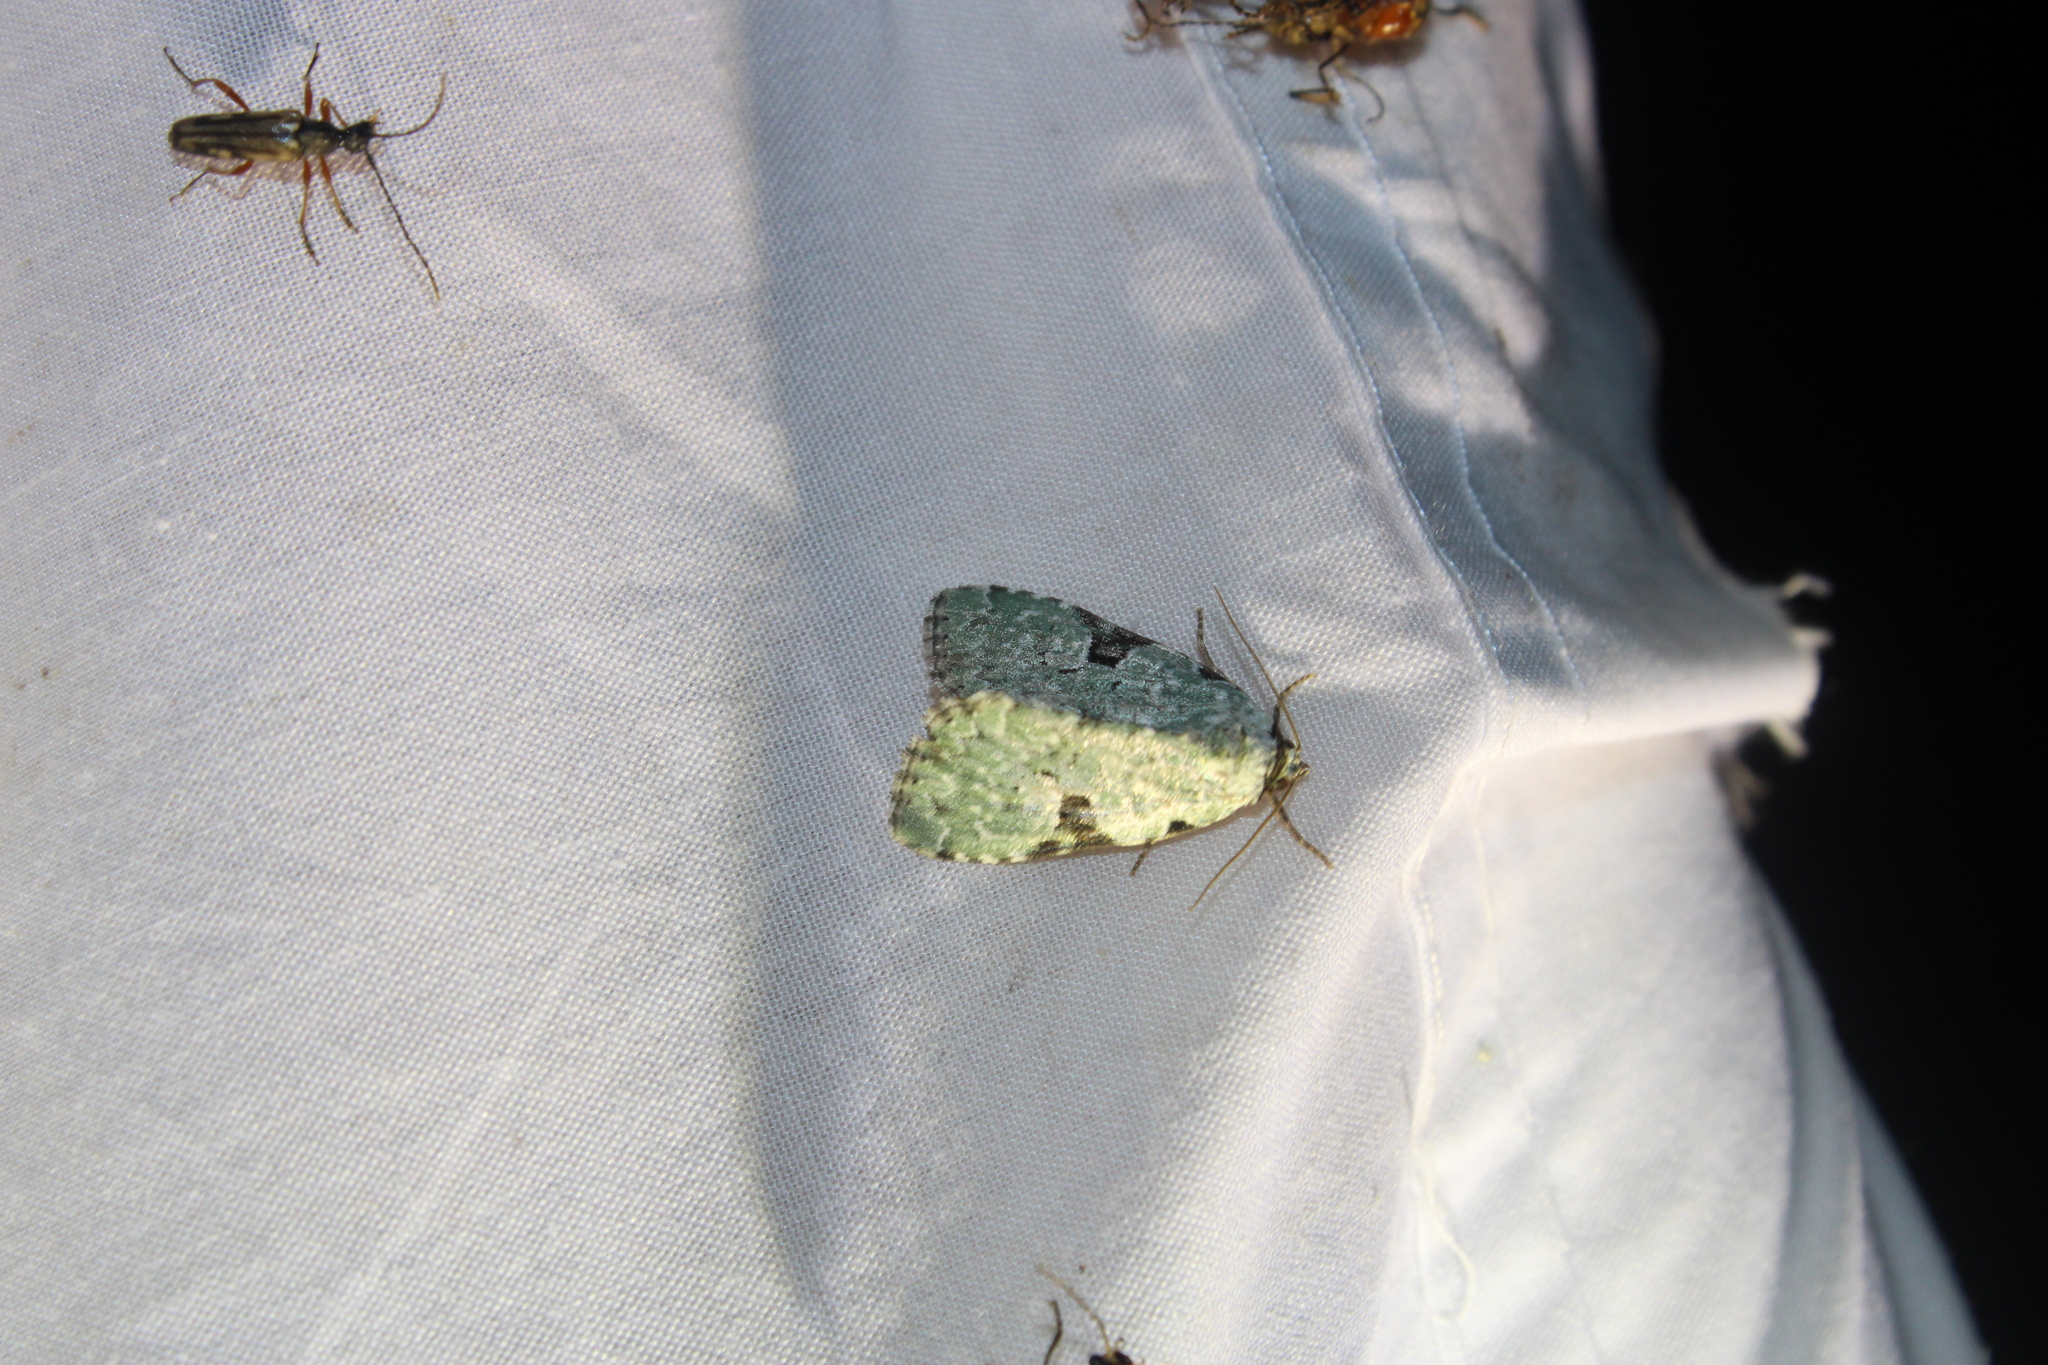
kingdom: Animalia
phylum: Arthropoda
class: Insecta
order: Lepidoptera
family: Noctuidae
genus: Leuconycta
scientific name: Leuconycta diphteroides
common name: Green leuconycta moth
